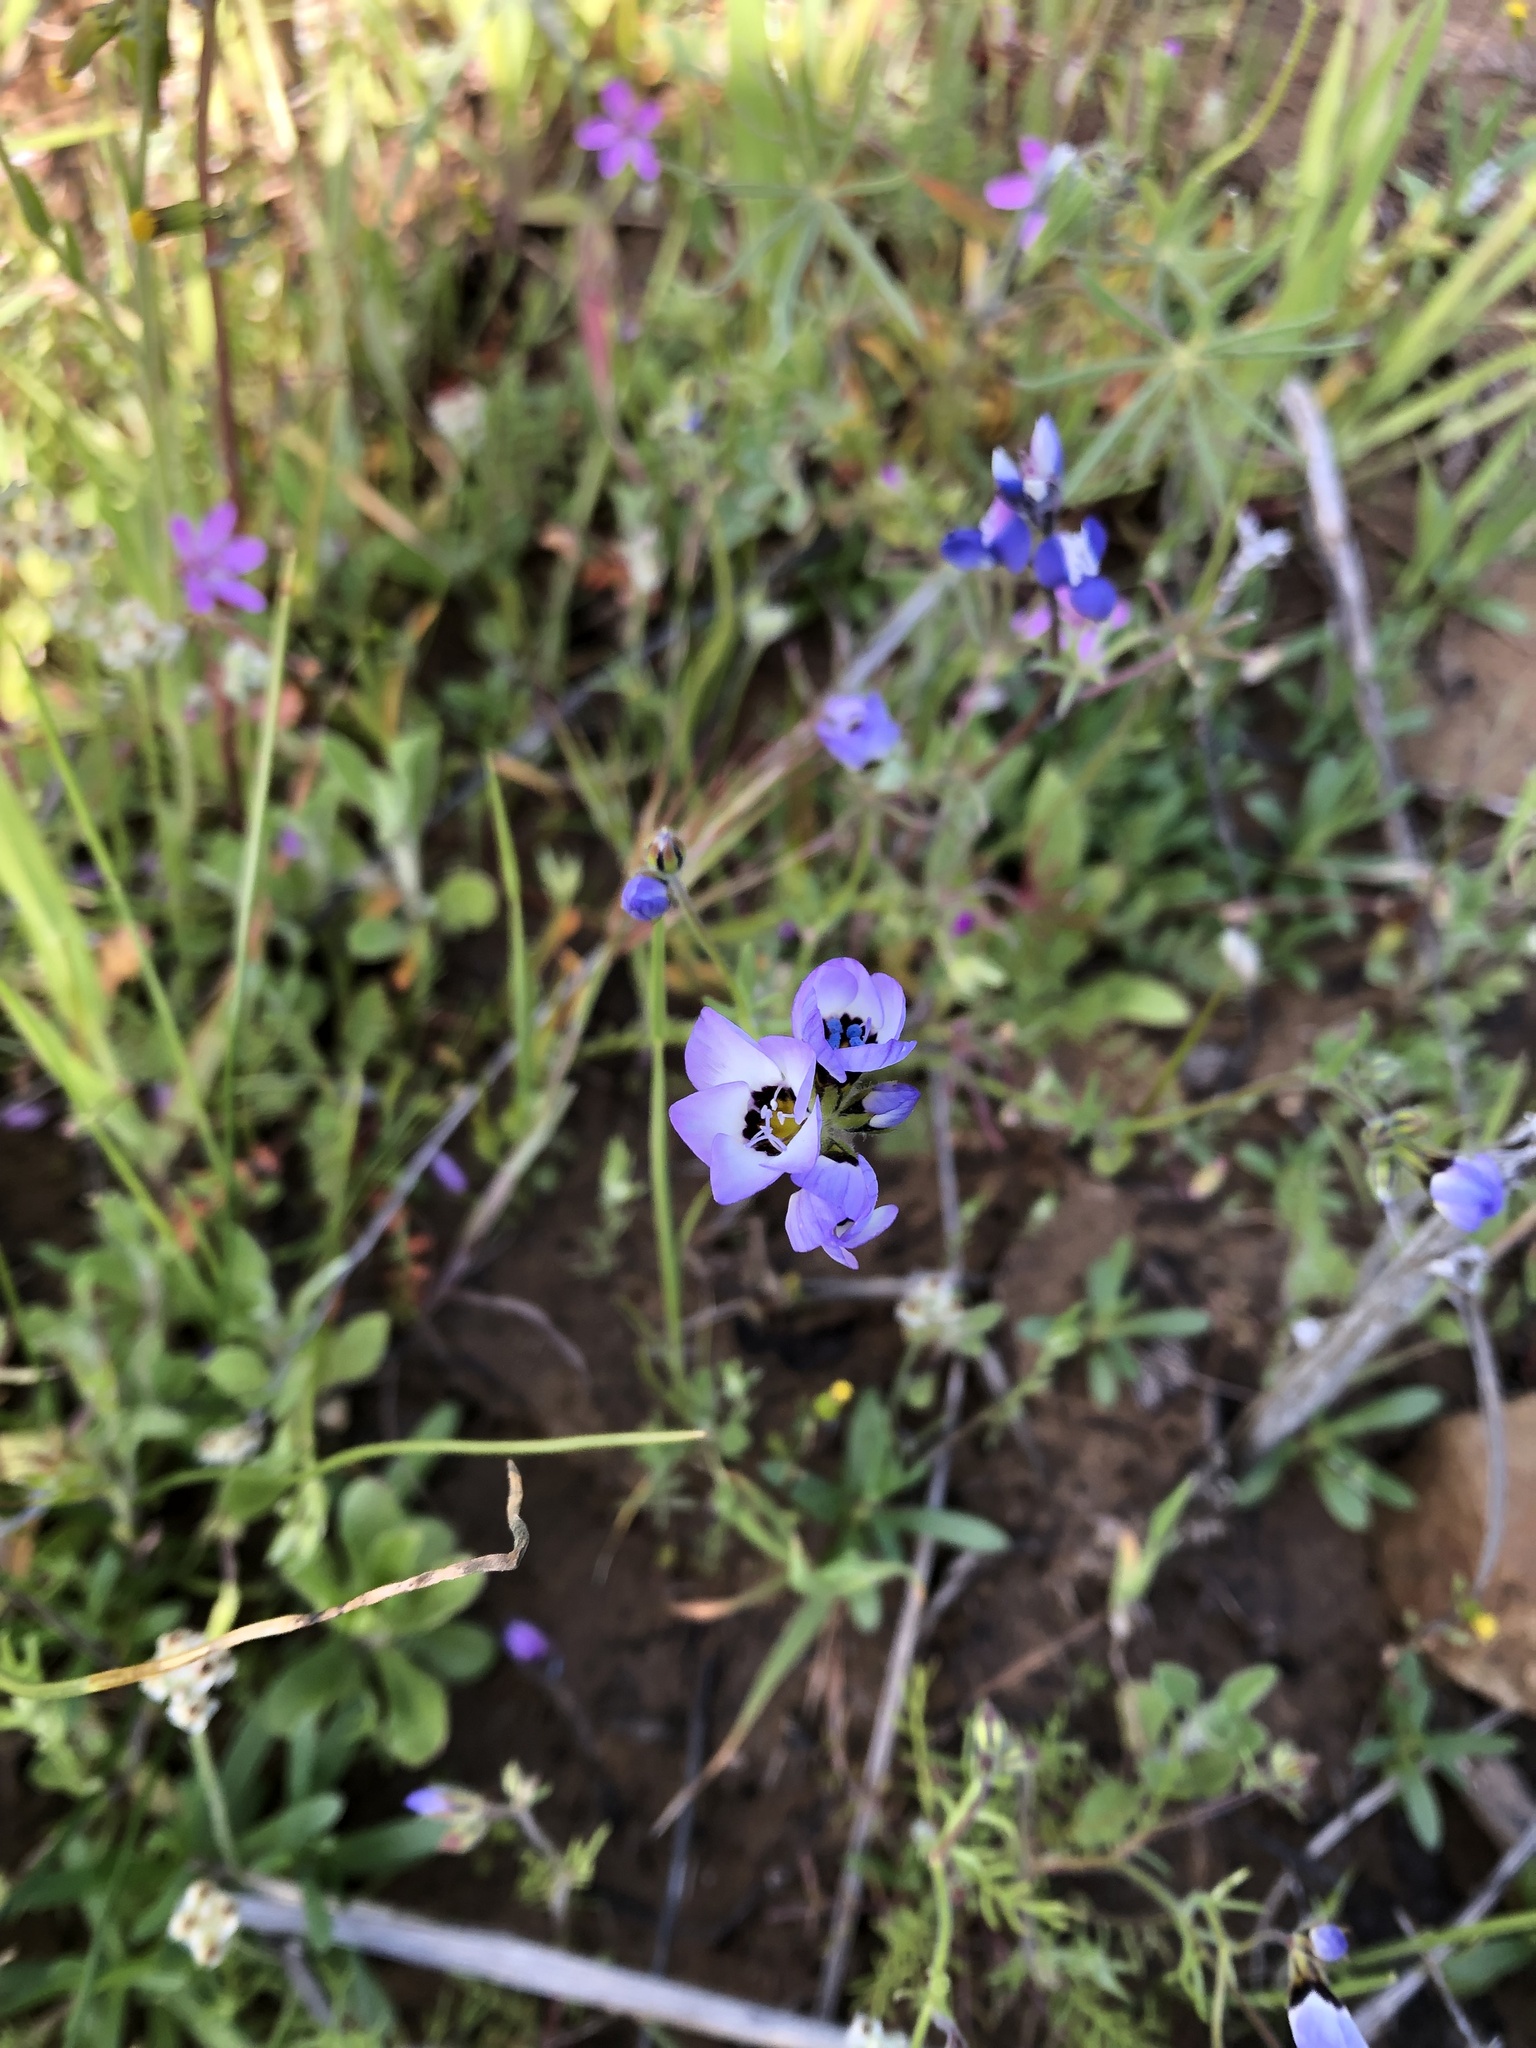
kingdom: Plantae
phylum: Tracheophyta
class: Magnoliopsida
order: Ericales
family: Polemoniaceae
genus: Gilia
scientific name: Gilia tricolor
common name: Bird's-eyes
